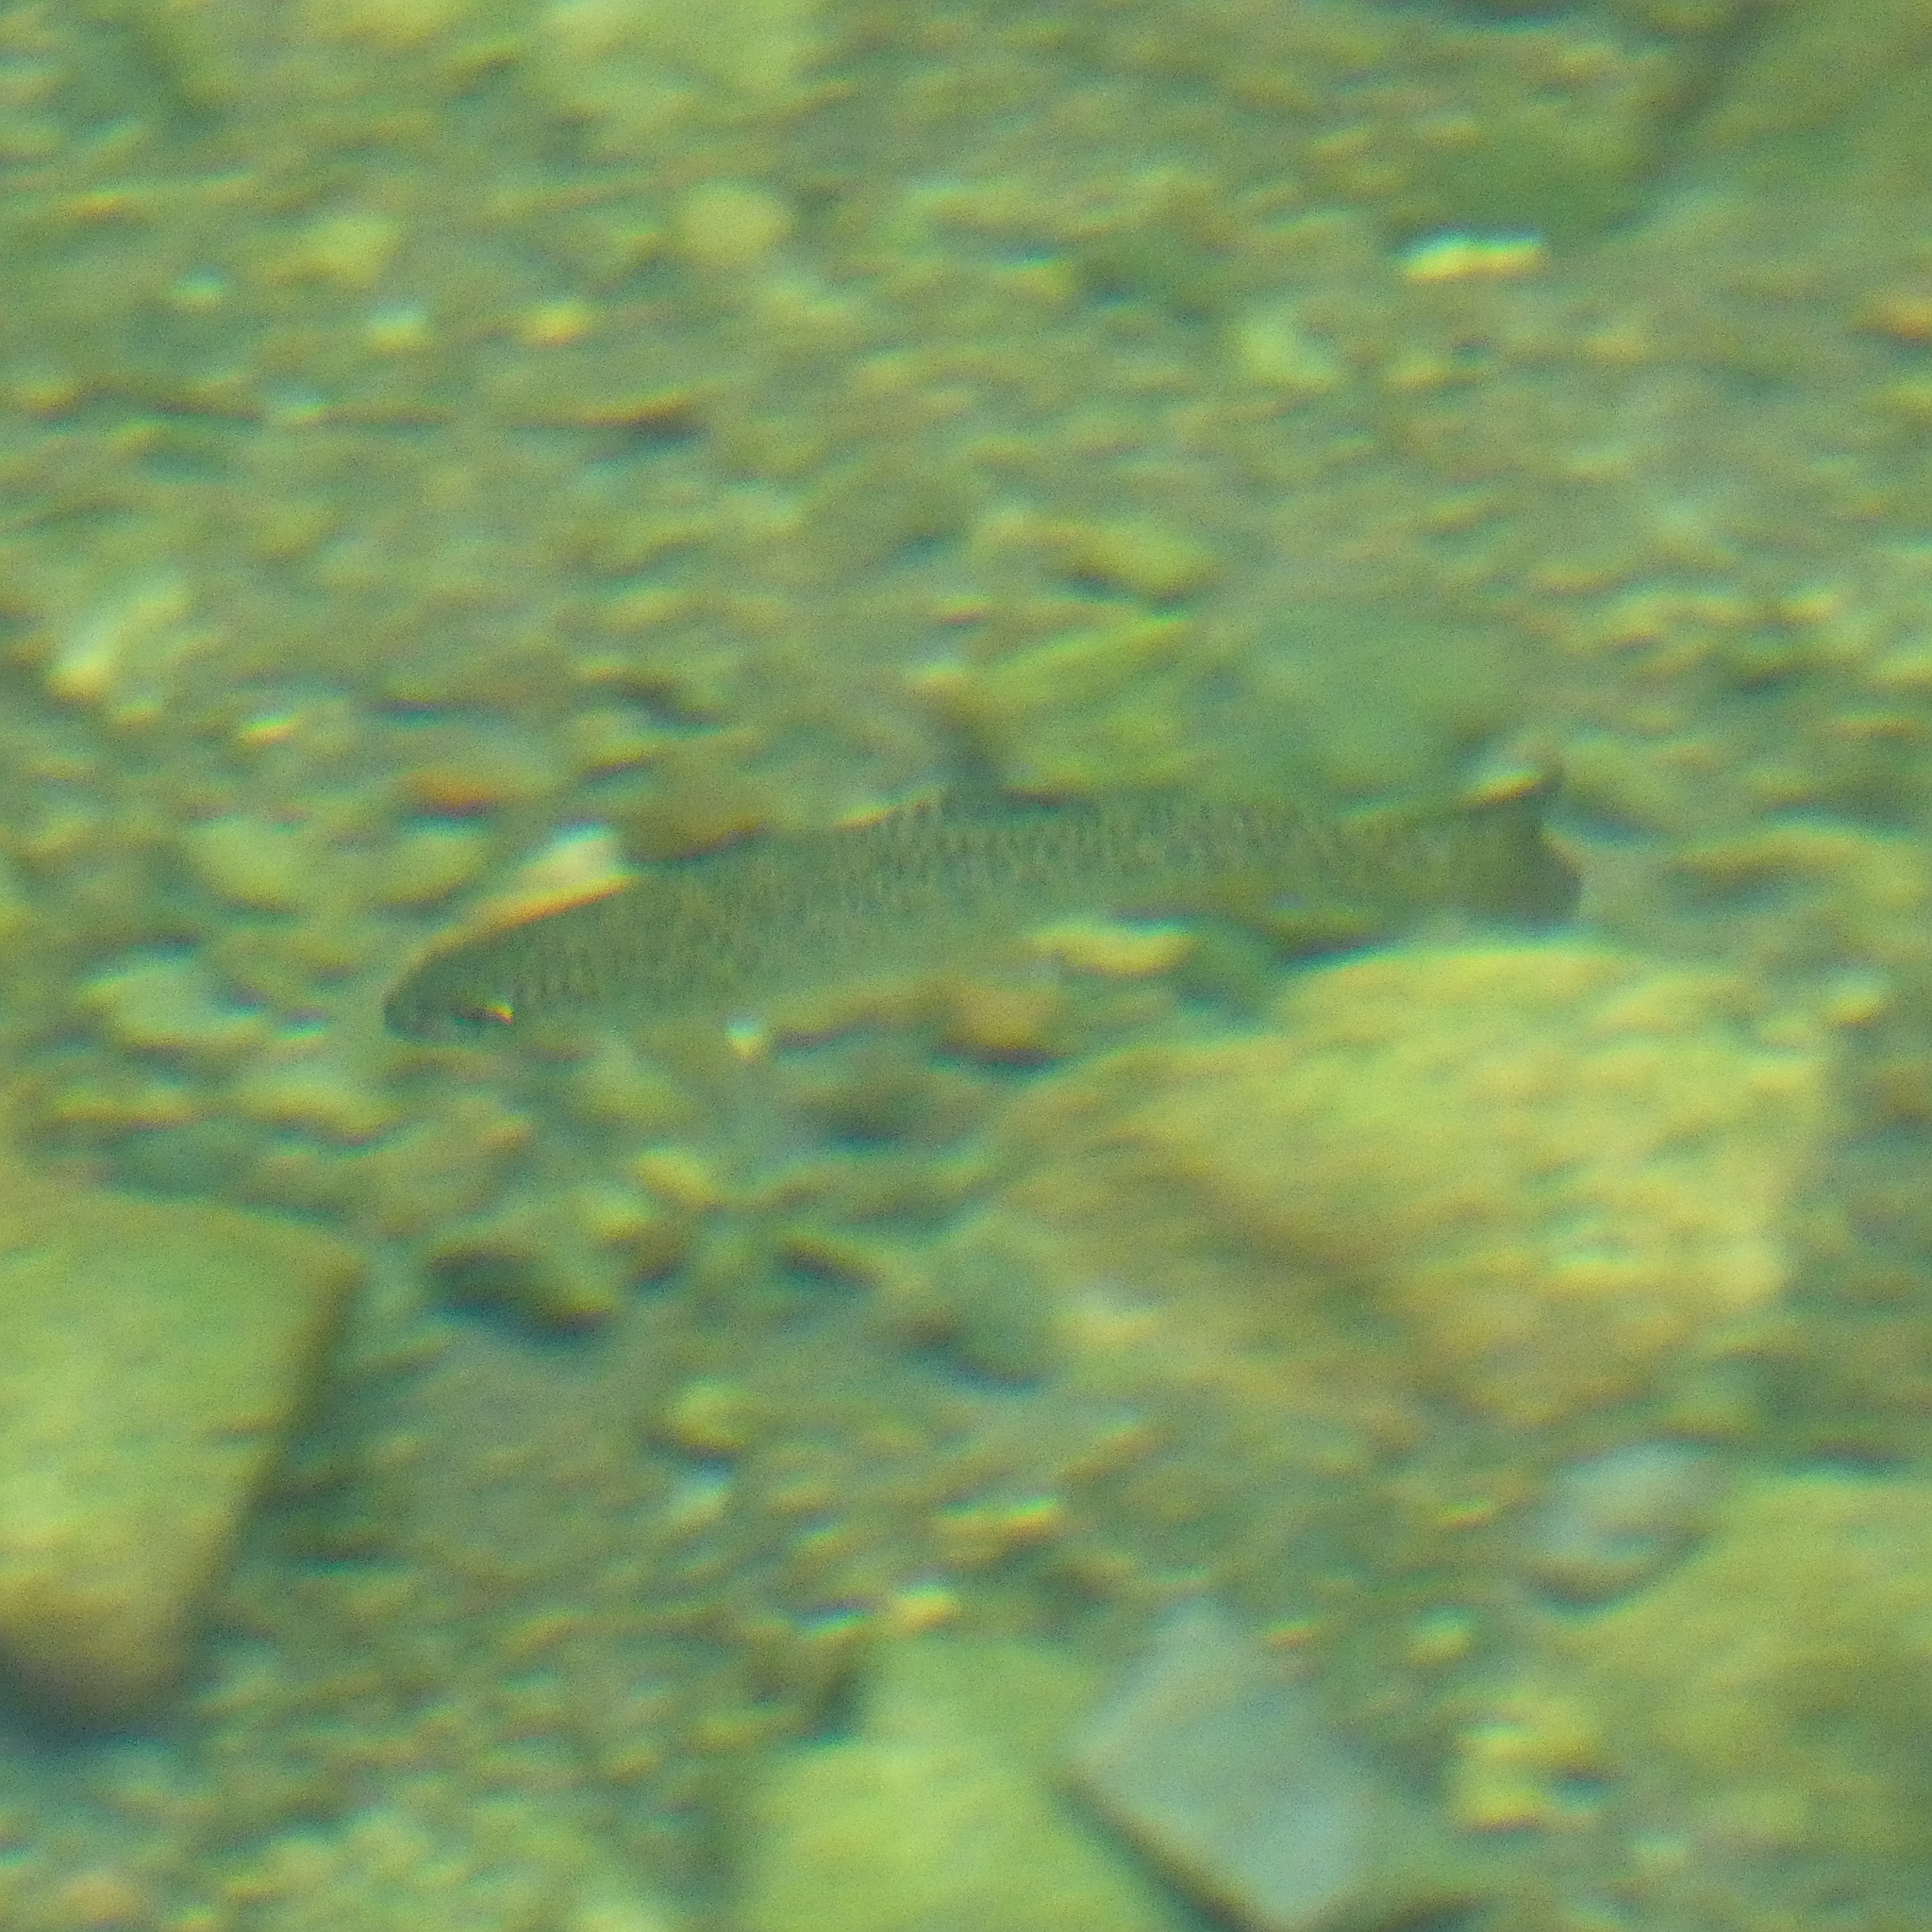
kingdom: Animalia
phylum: Chordata
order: Salmoniformes
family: Salmonidae
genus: Oncorhynchus
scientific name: Oncorhynchus mykiss
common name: Rainbow trout
